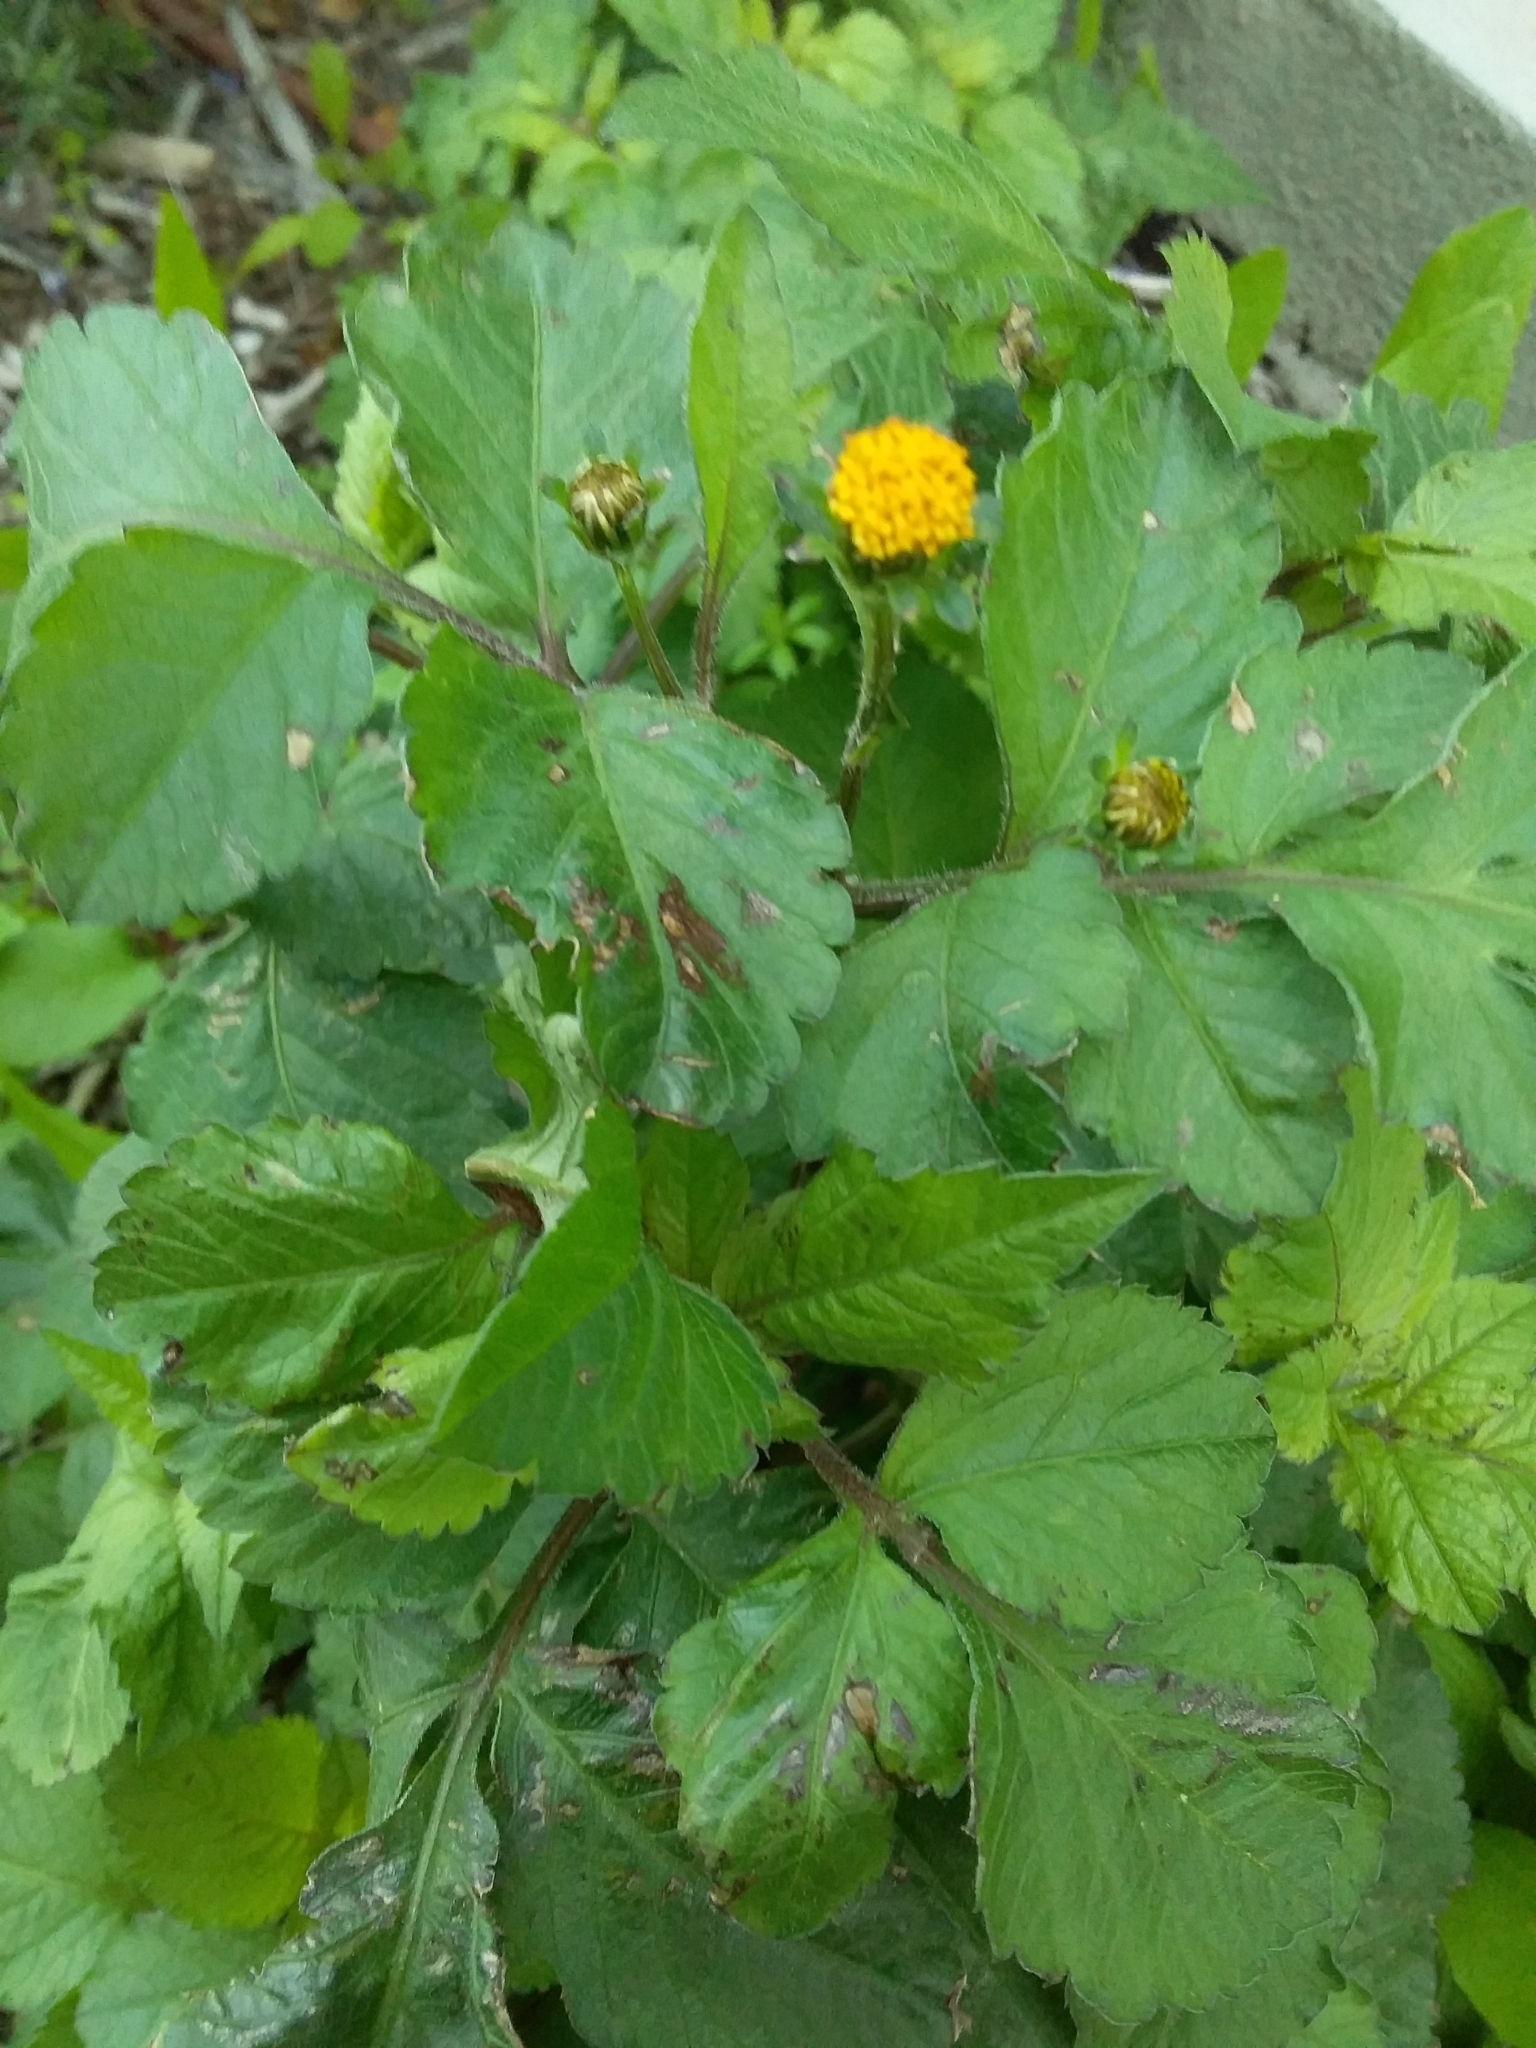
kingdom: Plantae
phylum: Tracheophyta
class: Magnoliopsida
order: Asterales
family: Asteraceae
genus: Bidens
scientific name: Bidens pilosa
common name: Black-jack
